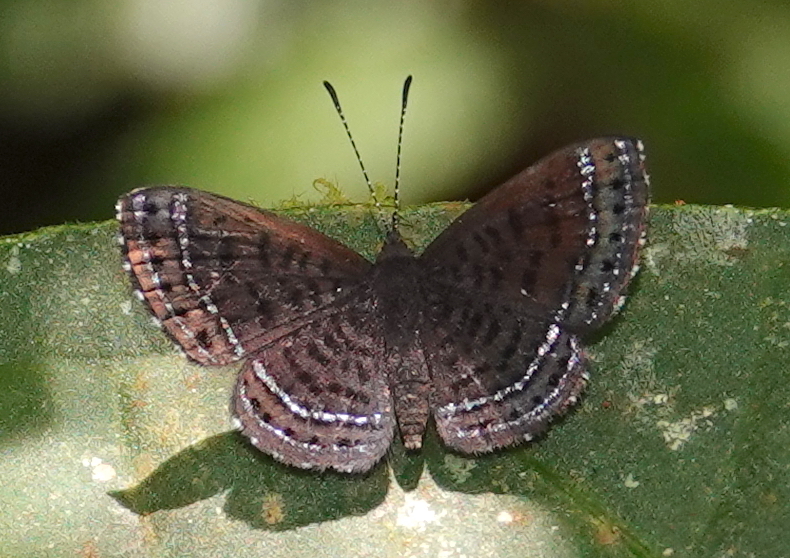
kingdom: Animalia
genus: Charis
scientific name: Charis anius
